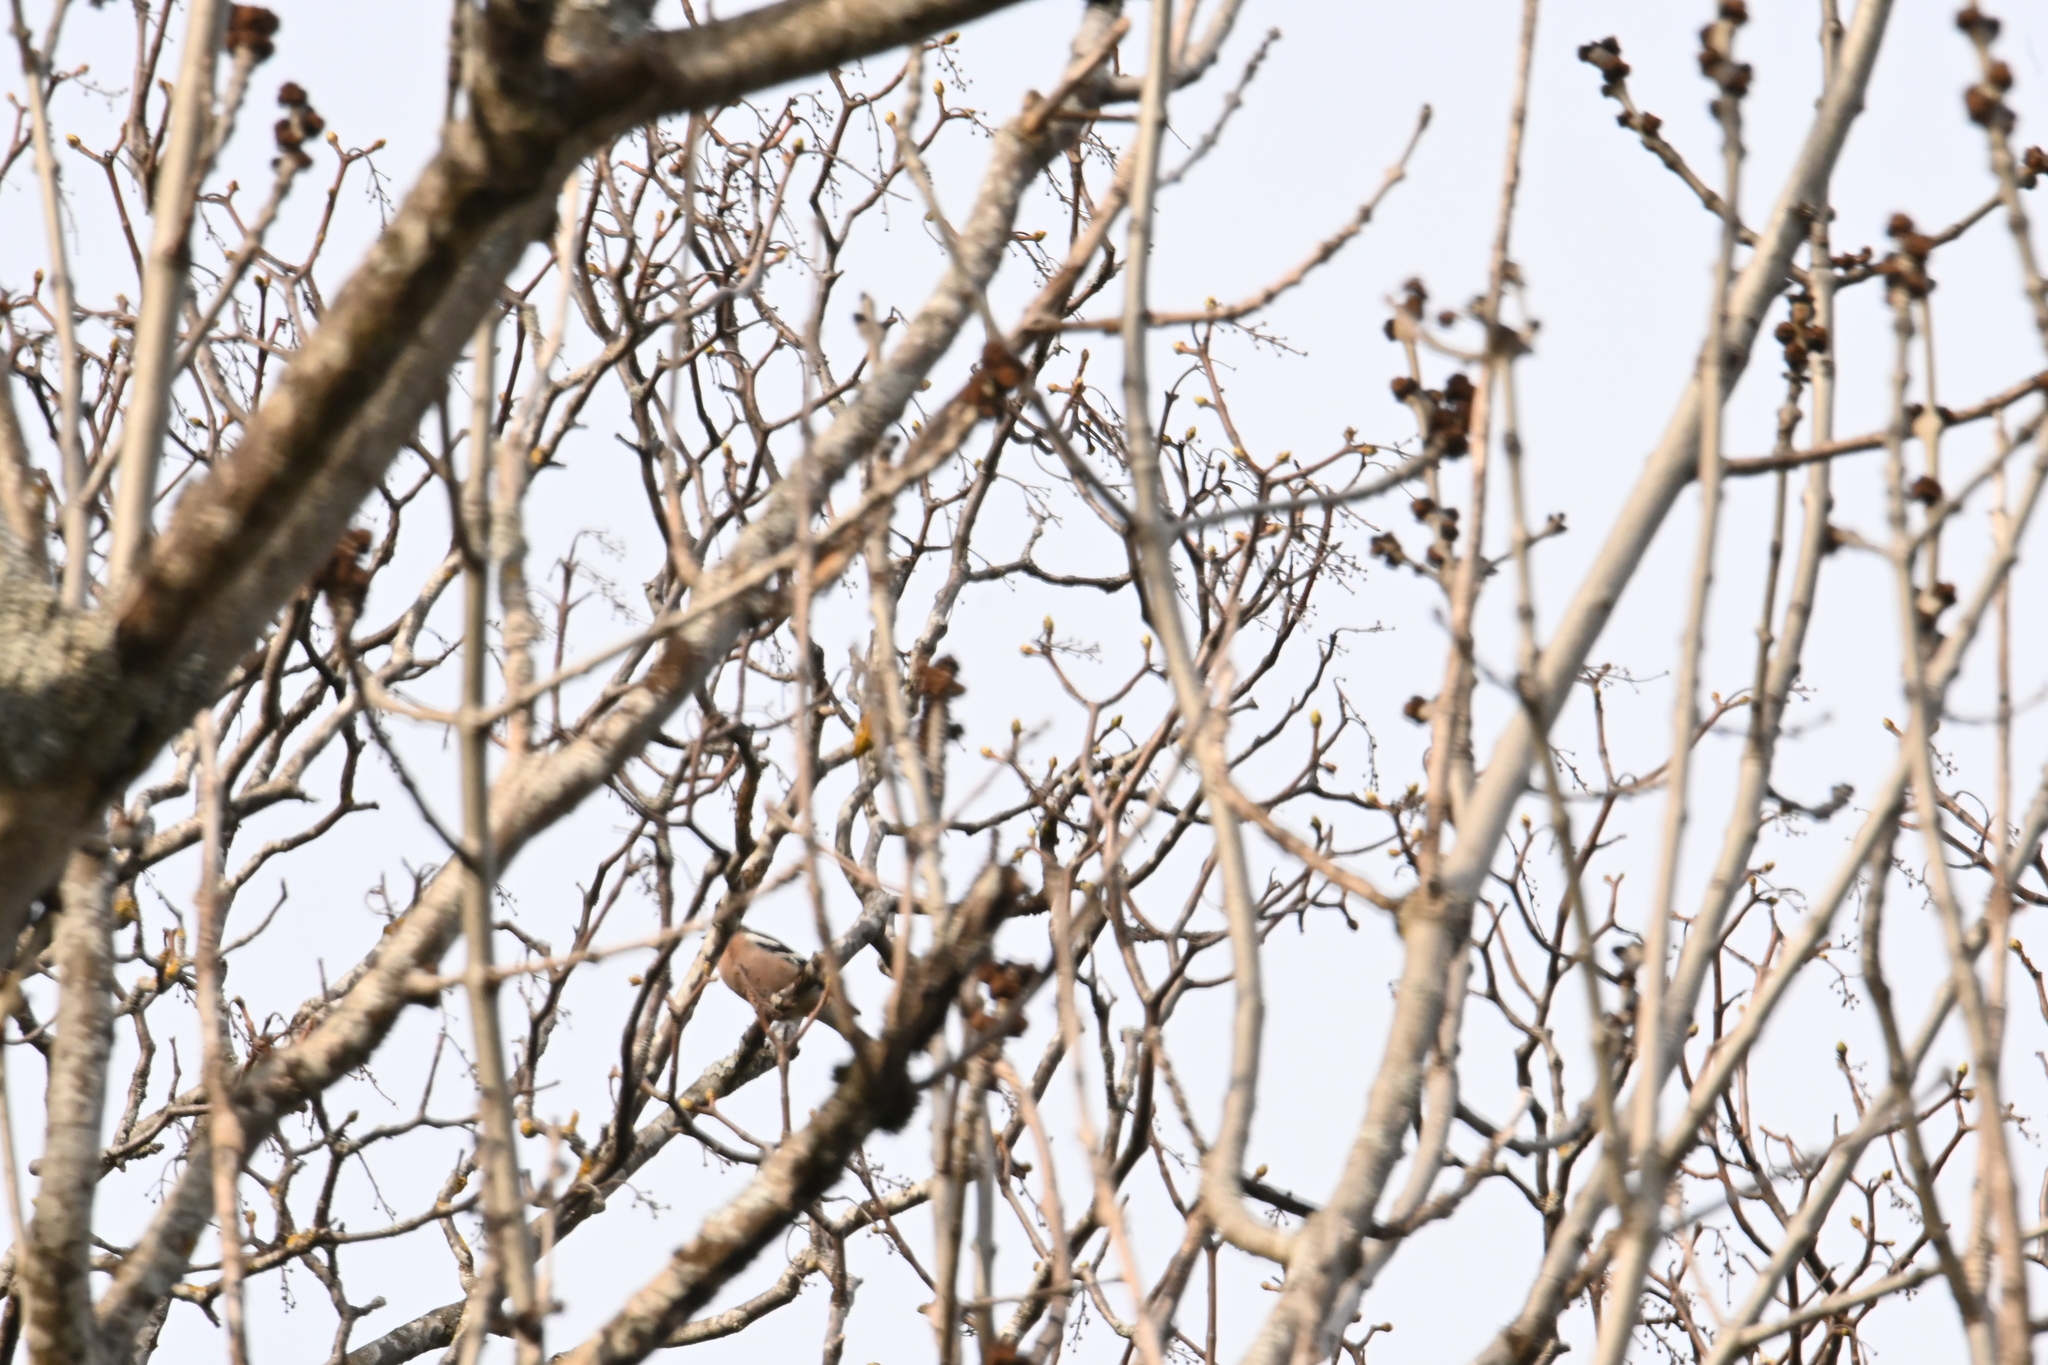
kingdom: Animalia
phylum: Chordata
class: Aves
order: Passeriformes
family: Fringillidae
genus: Fringilla
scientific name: Fringilla coelebs
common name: Common chaffinch
